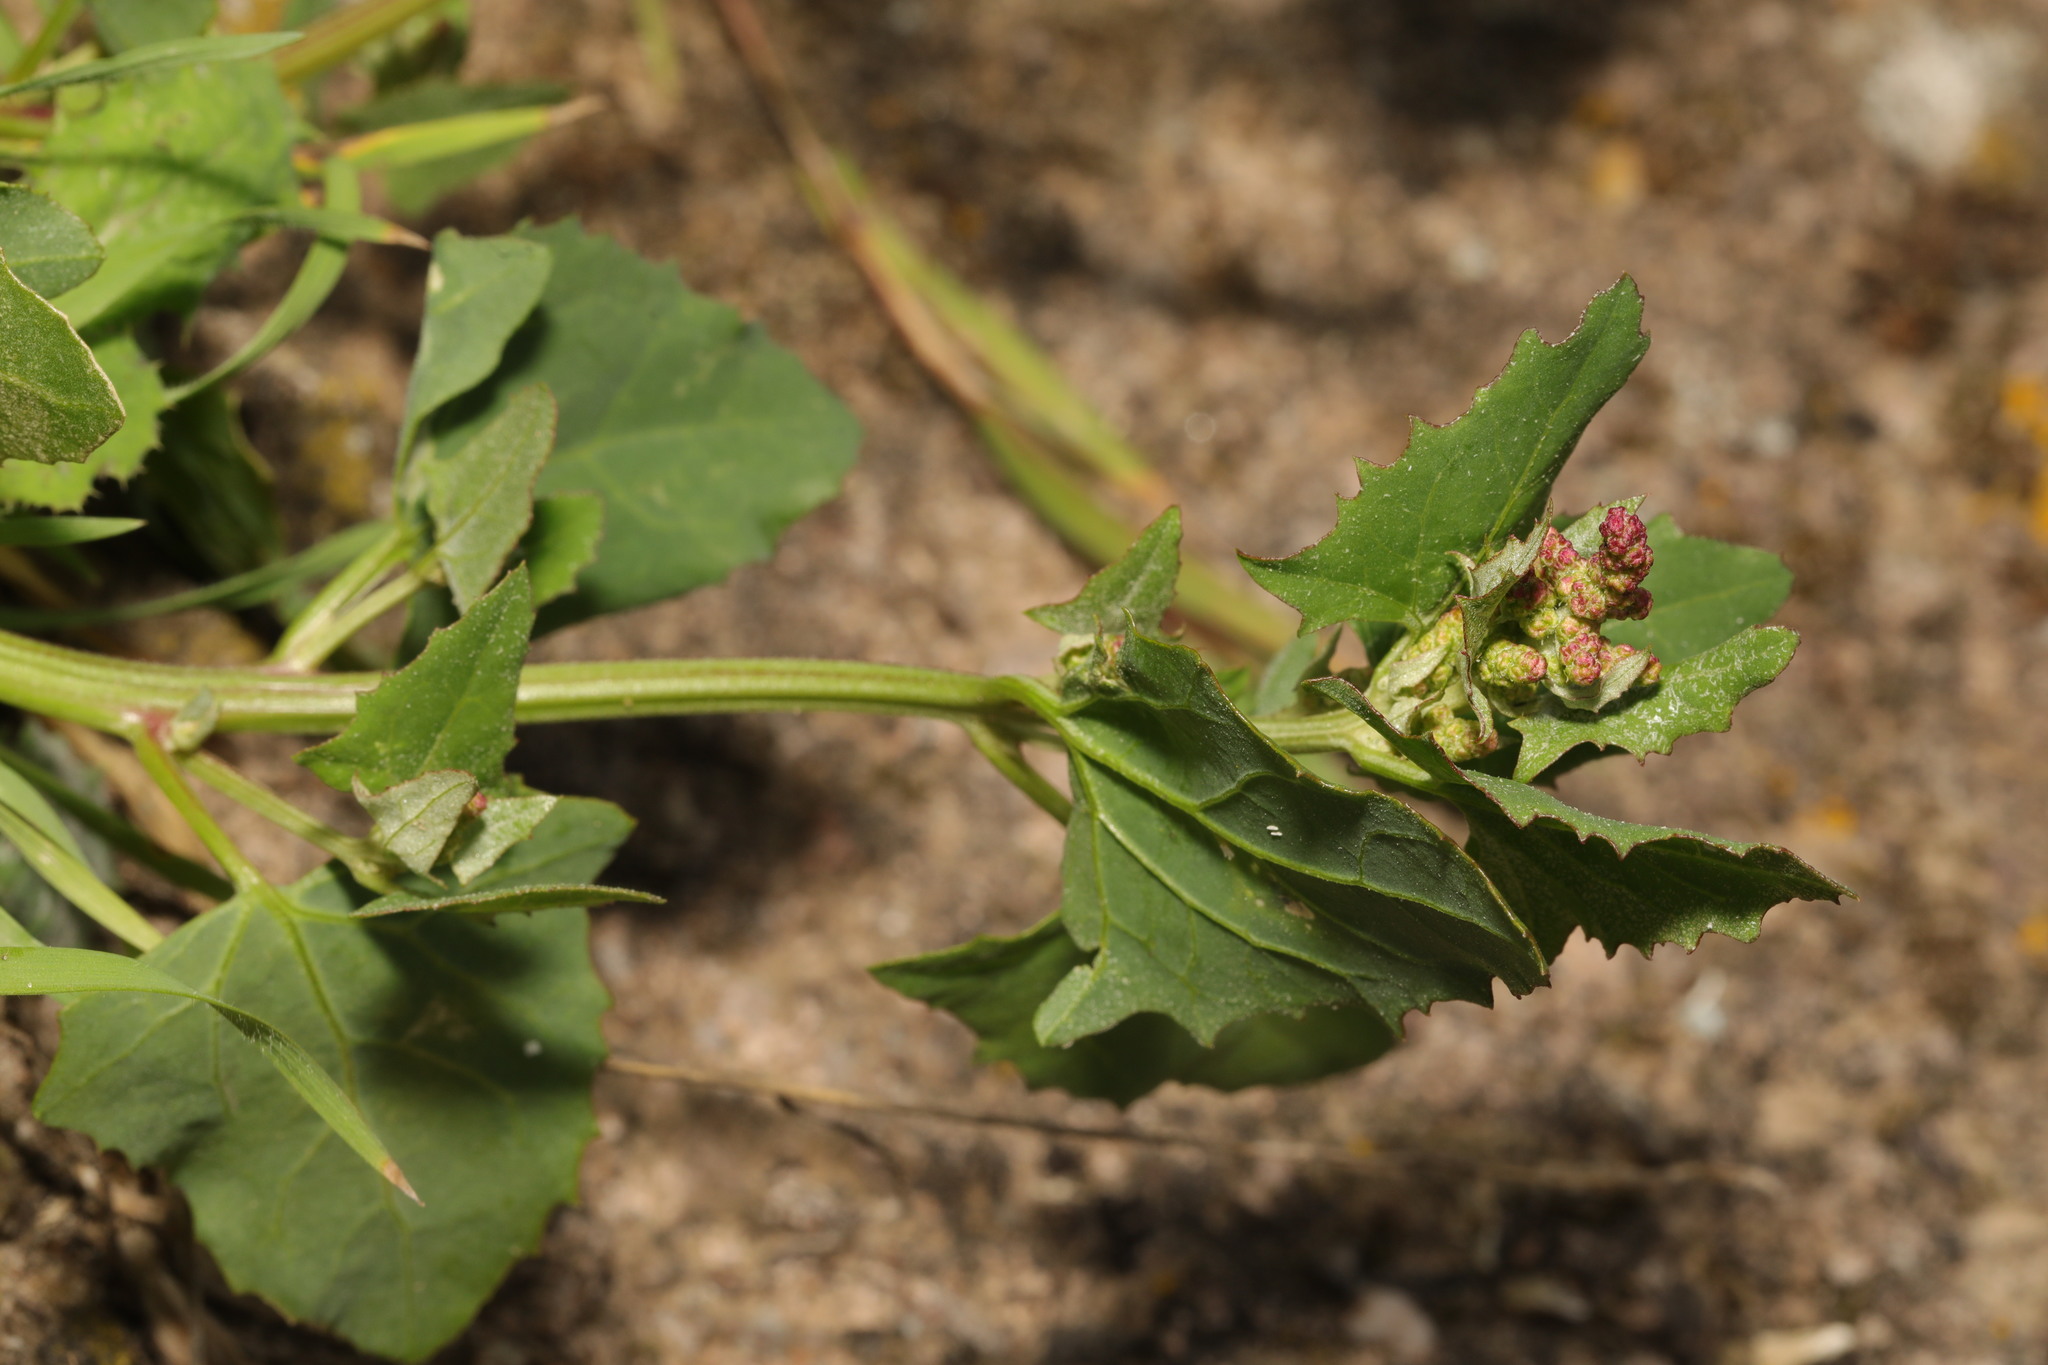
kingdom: Plantae
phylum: Tracheophyta
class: Magnoliopsida
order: Caryophyllales
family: Amaranthaceae
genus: Atriplex
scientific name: Atriplex prostrata
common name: Spear-leaved orache
